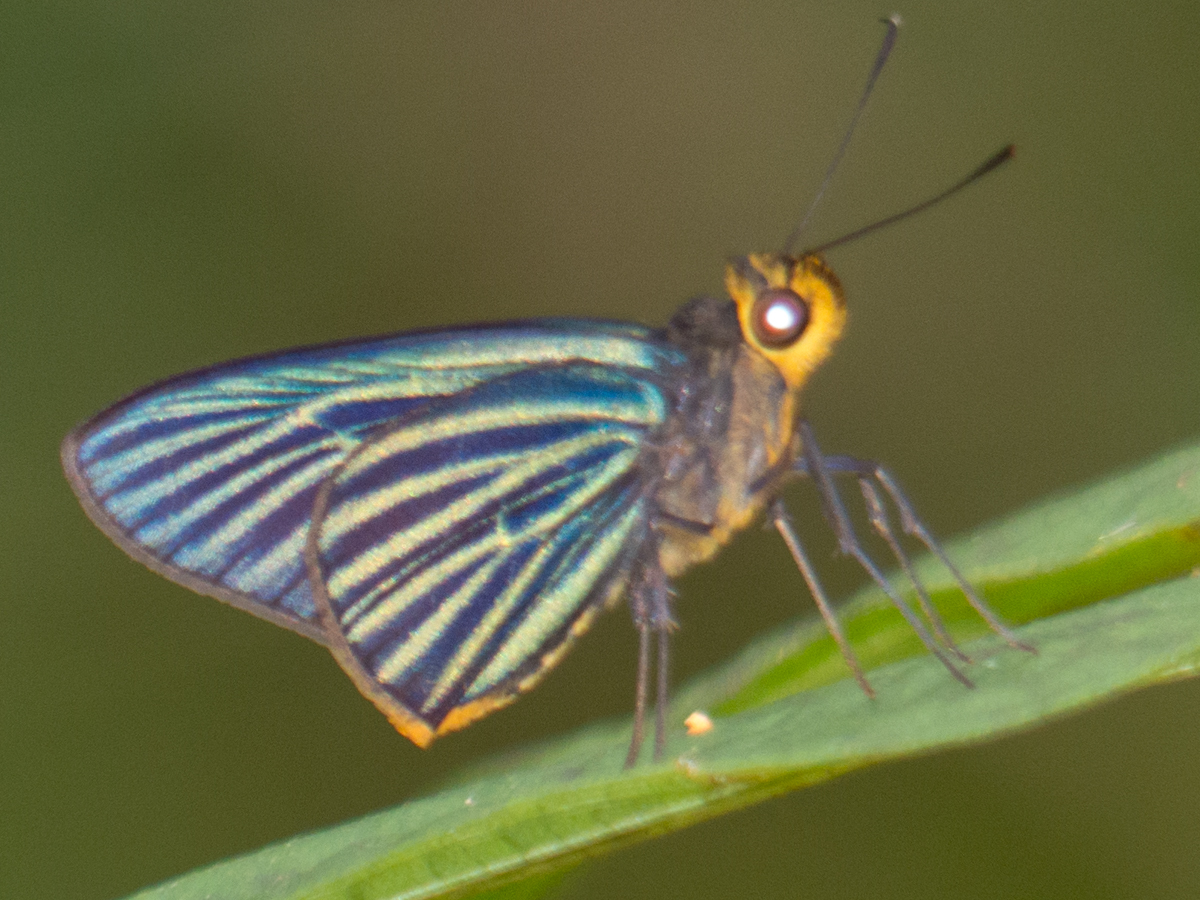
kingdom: Animalia
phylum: Arthropoda
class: Insecta
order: Lepidoptera
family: Hesperiidae
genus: Pirdana
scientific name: Pirdana hyela
